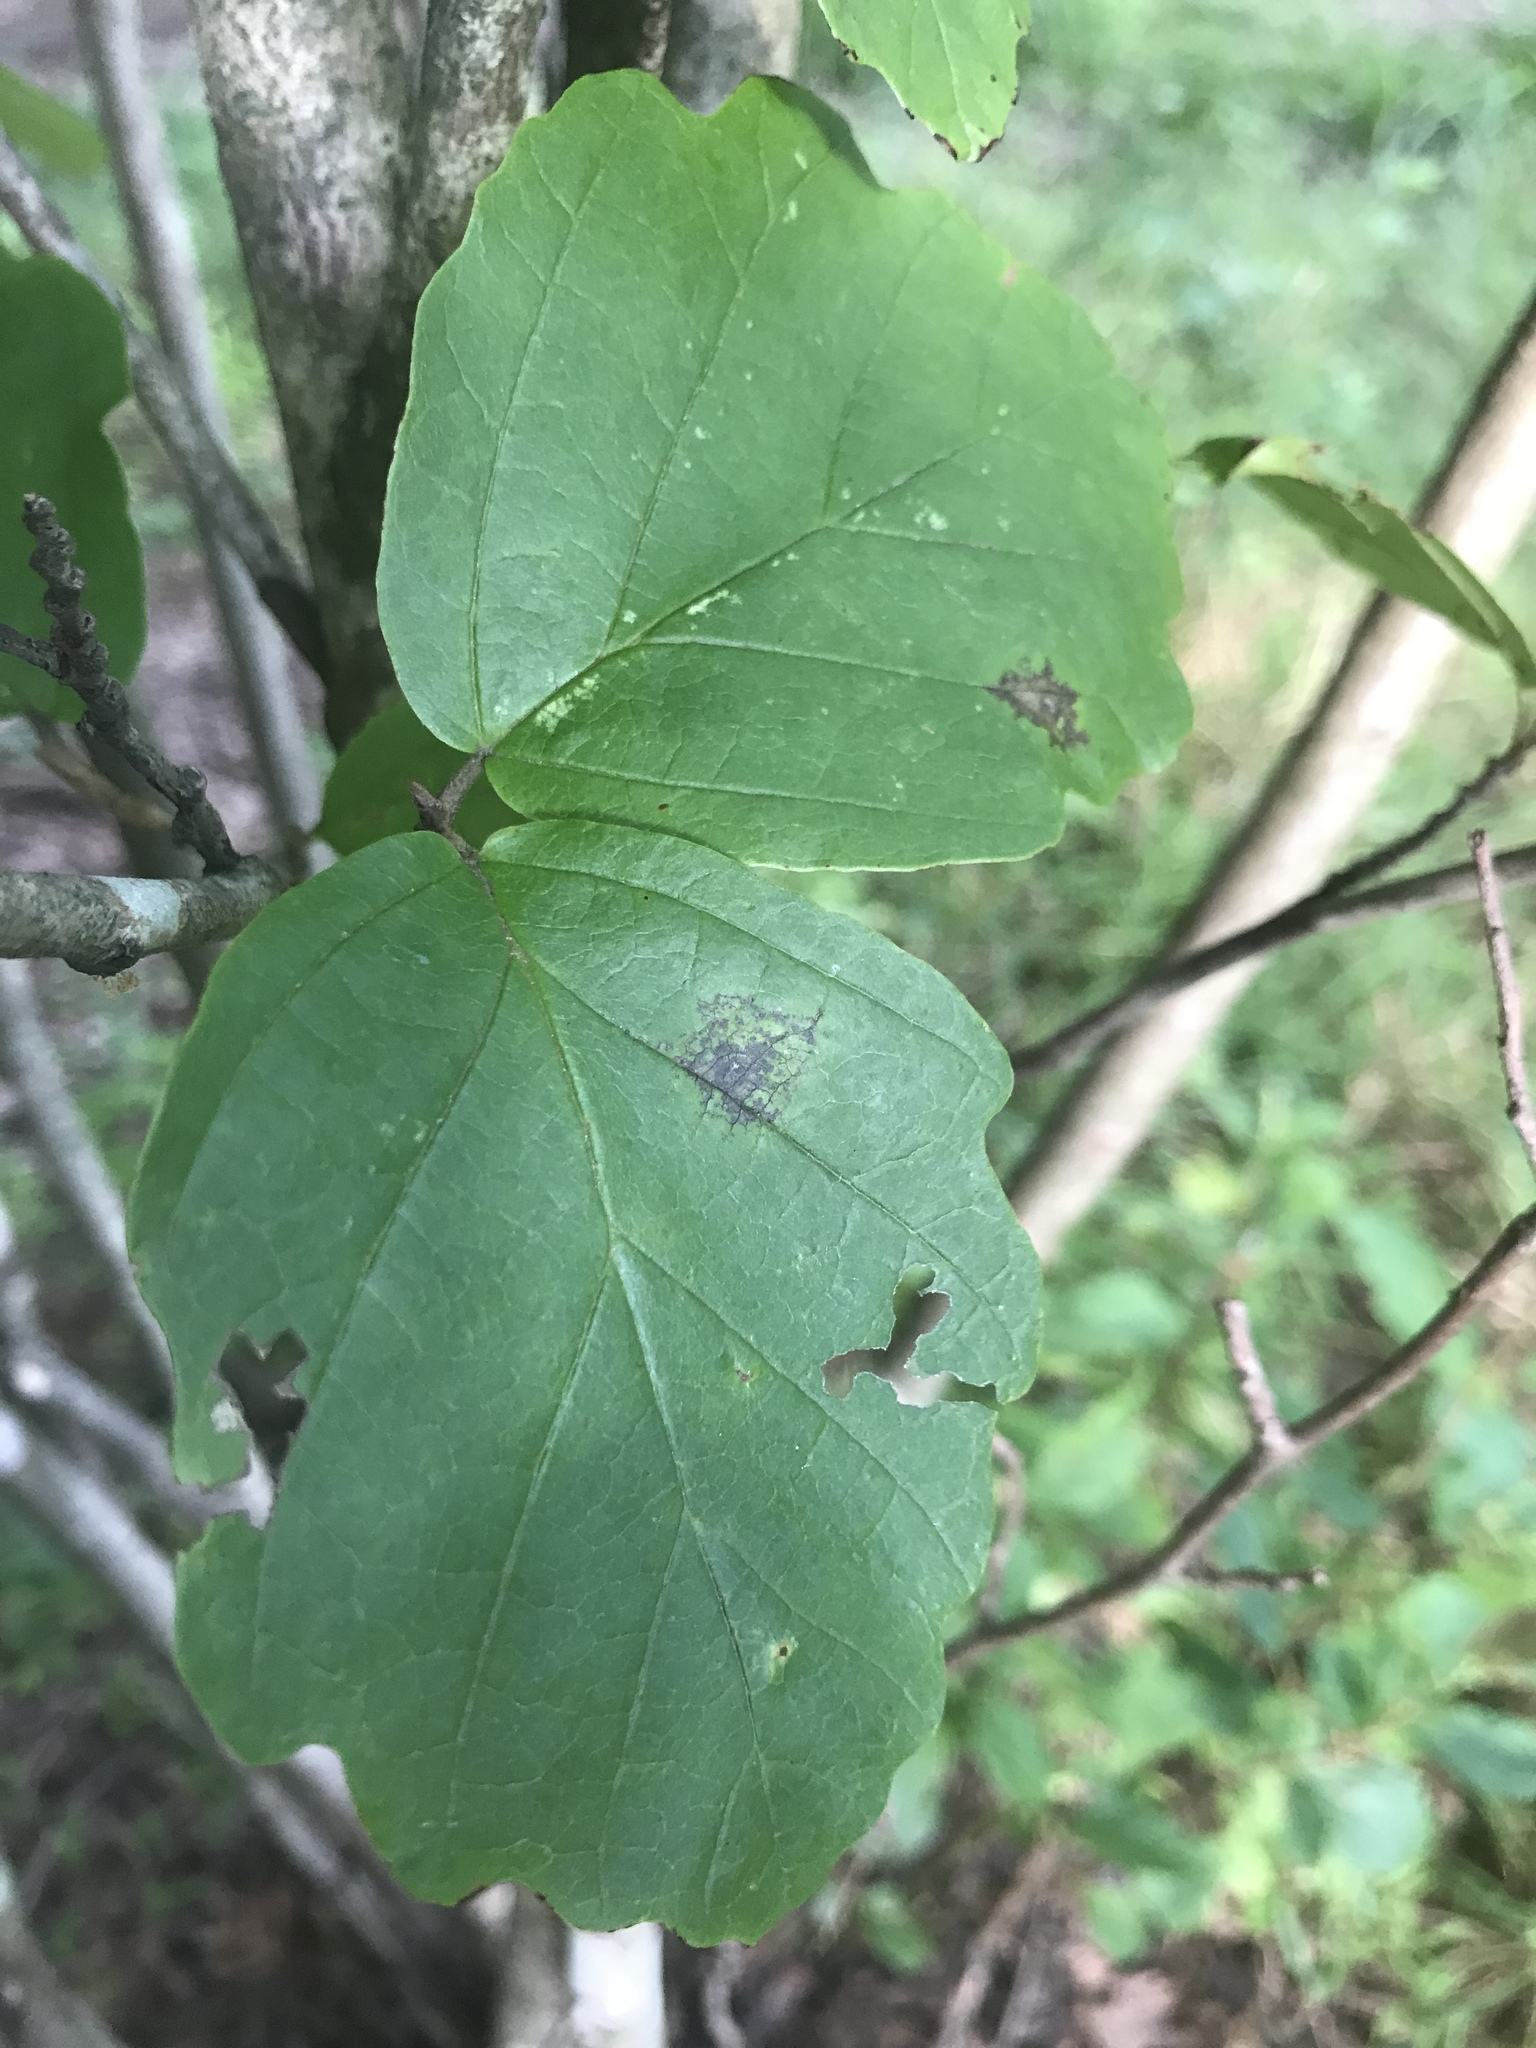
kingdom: Plantae
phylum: Tracheophyta
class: Magnoliopsida
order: Saxifragales
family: Hamamelidaceae
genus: Hamamelis
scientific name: Hamamelis virginiana
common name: Witch-hazel
